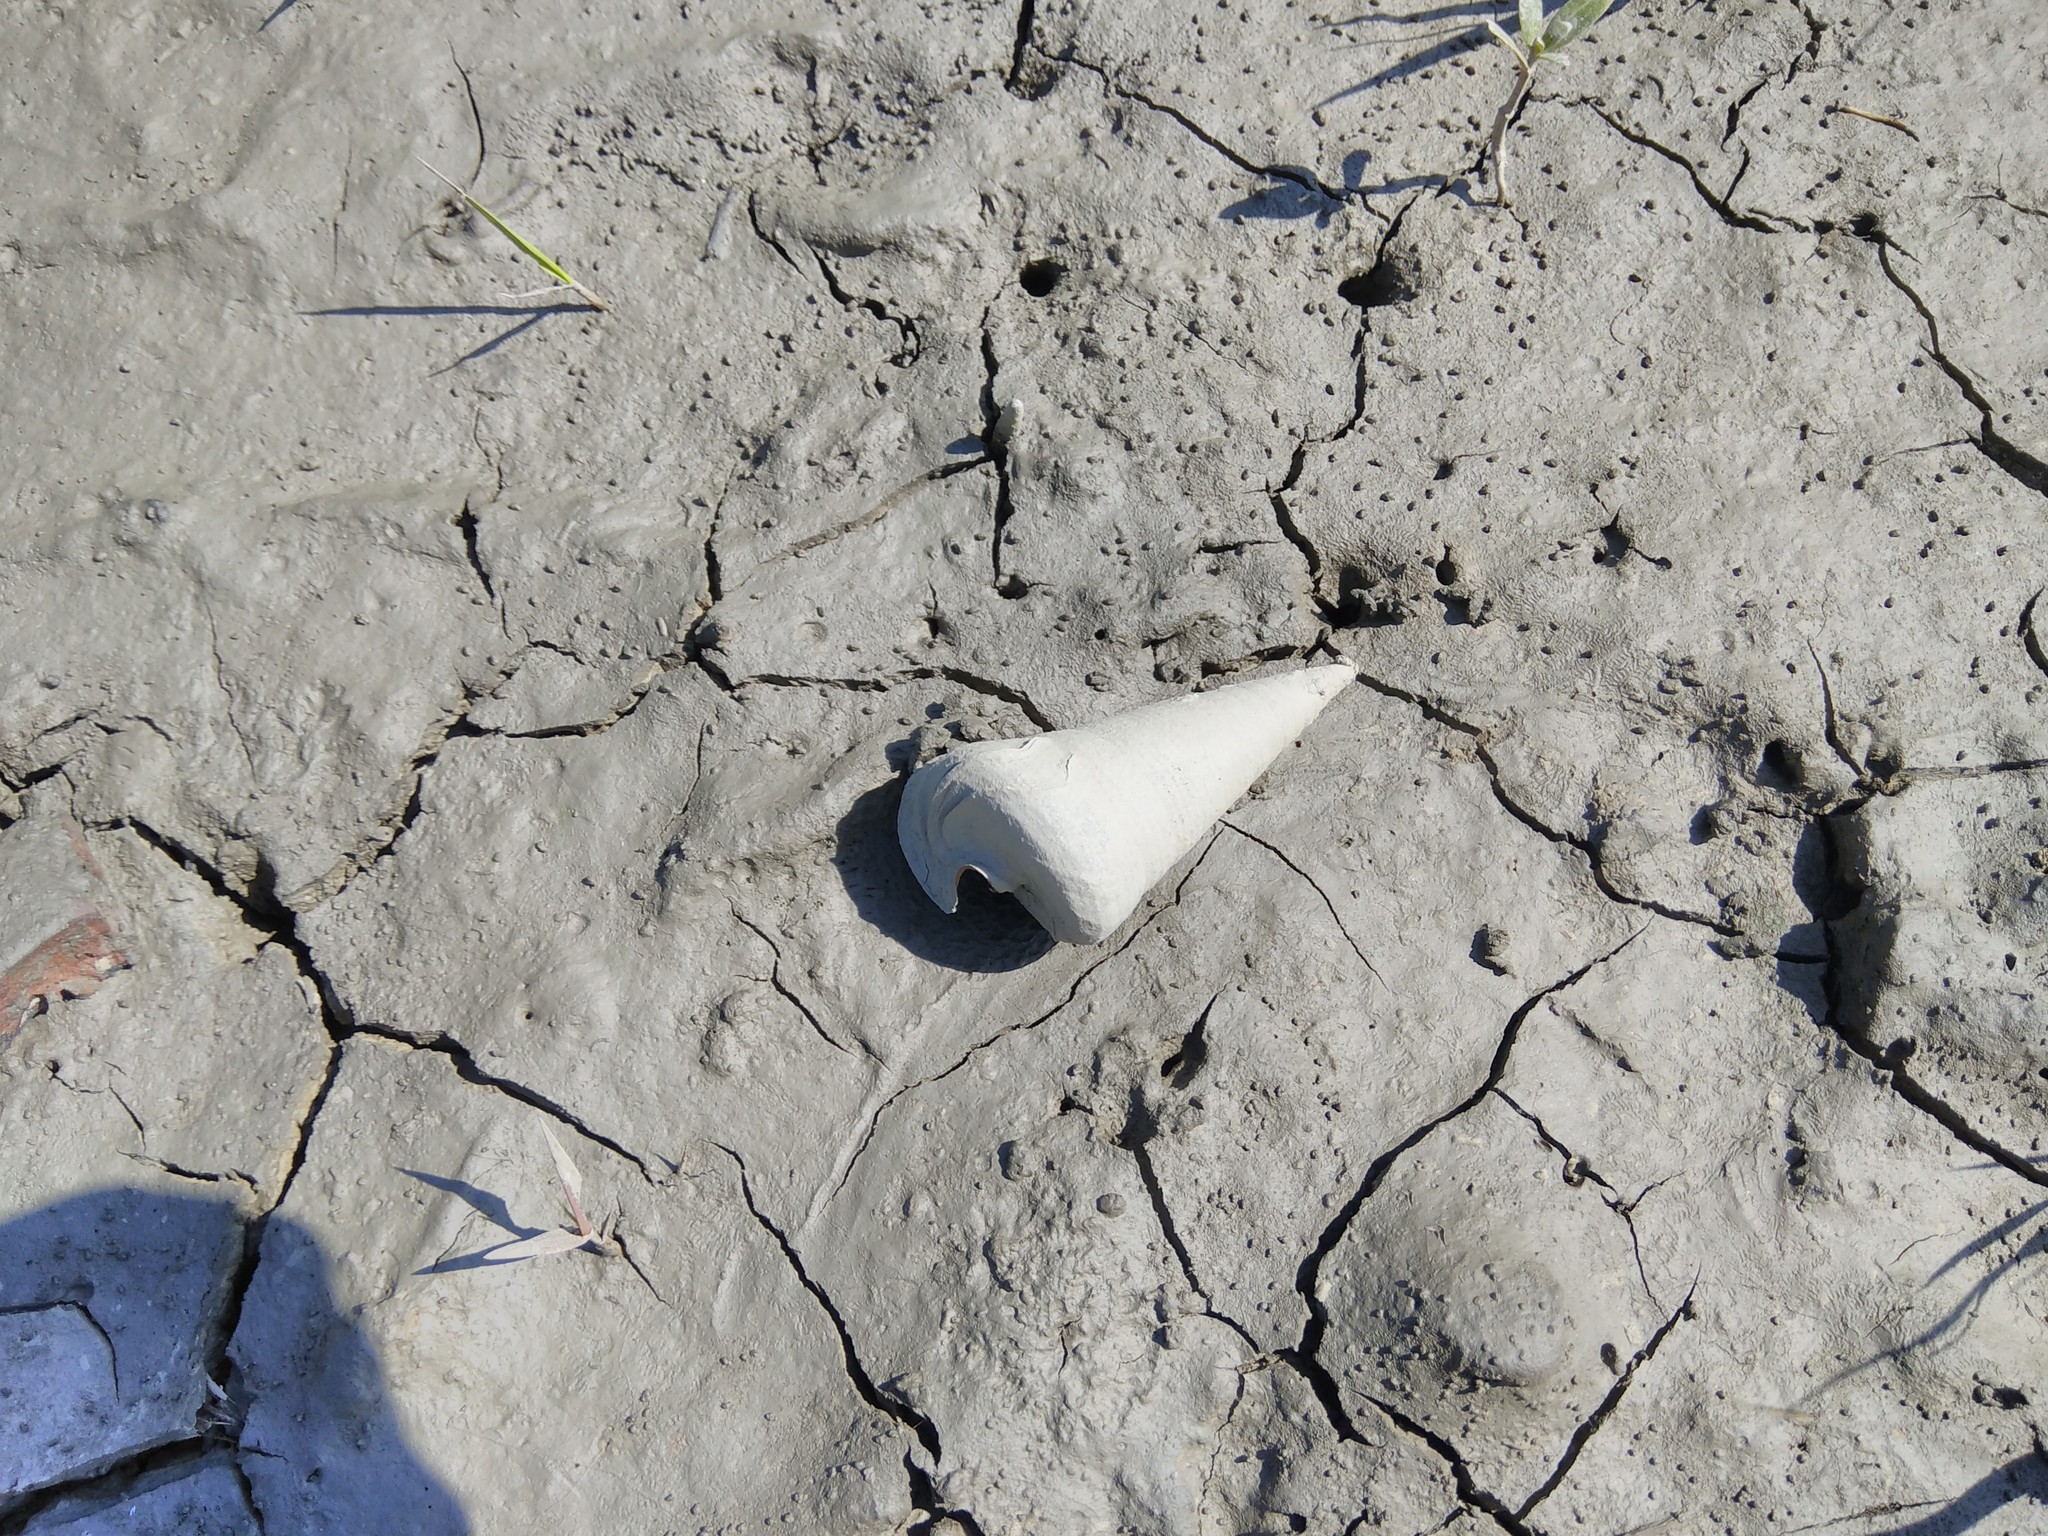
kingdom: Animalia
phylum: Mollusca
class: Gastropoda
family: Potamididae
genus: Telescopium
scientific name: Telescopium telescopium
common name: Telescope creeper
